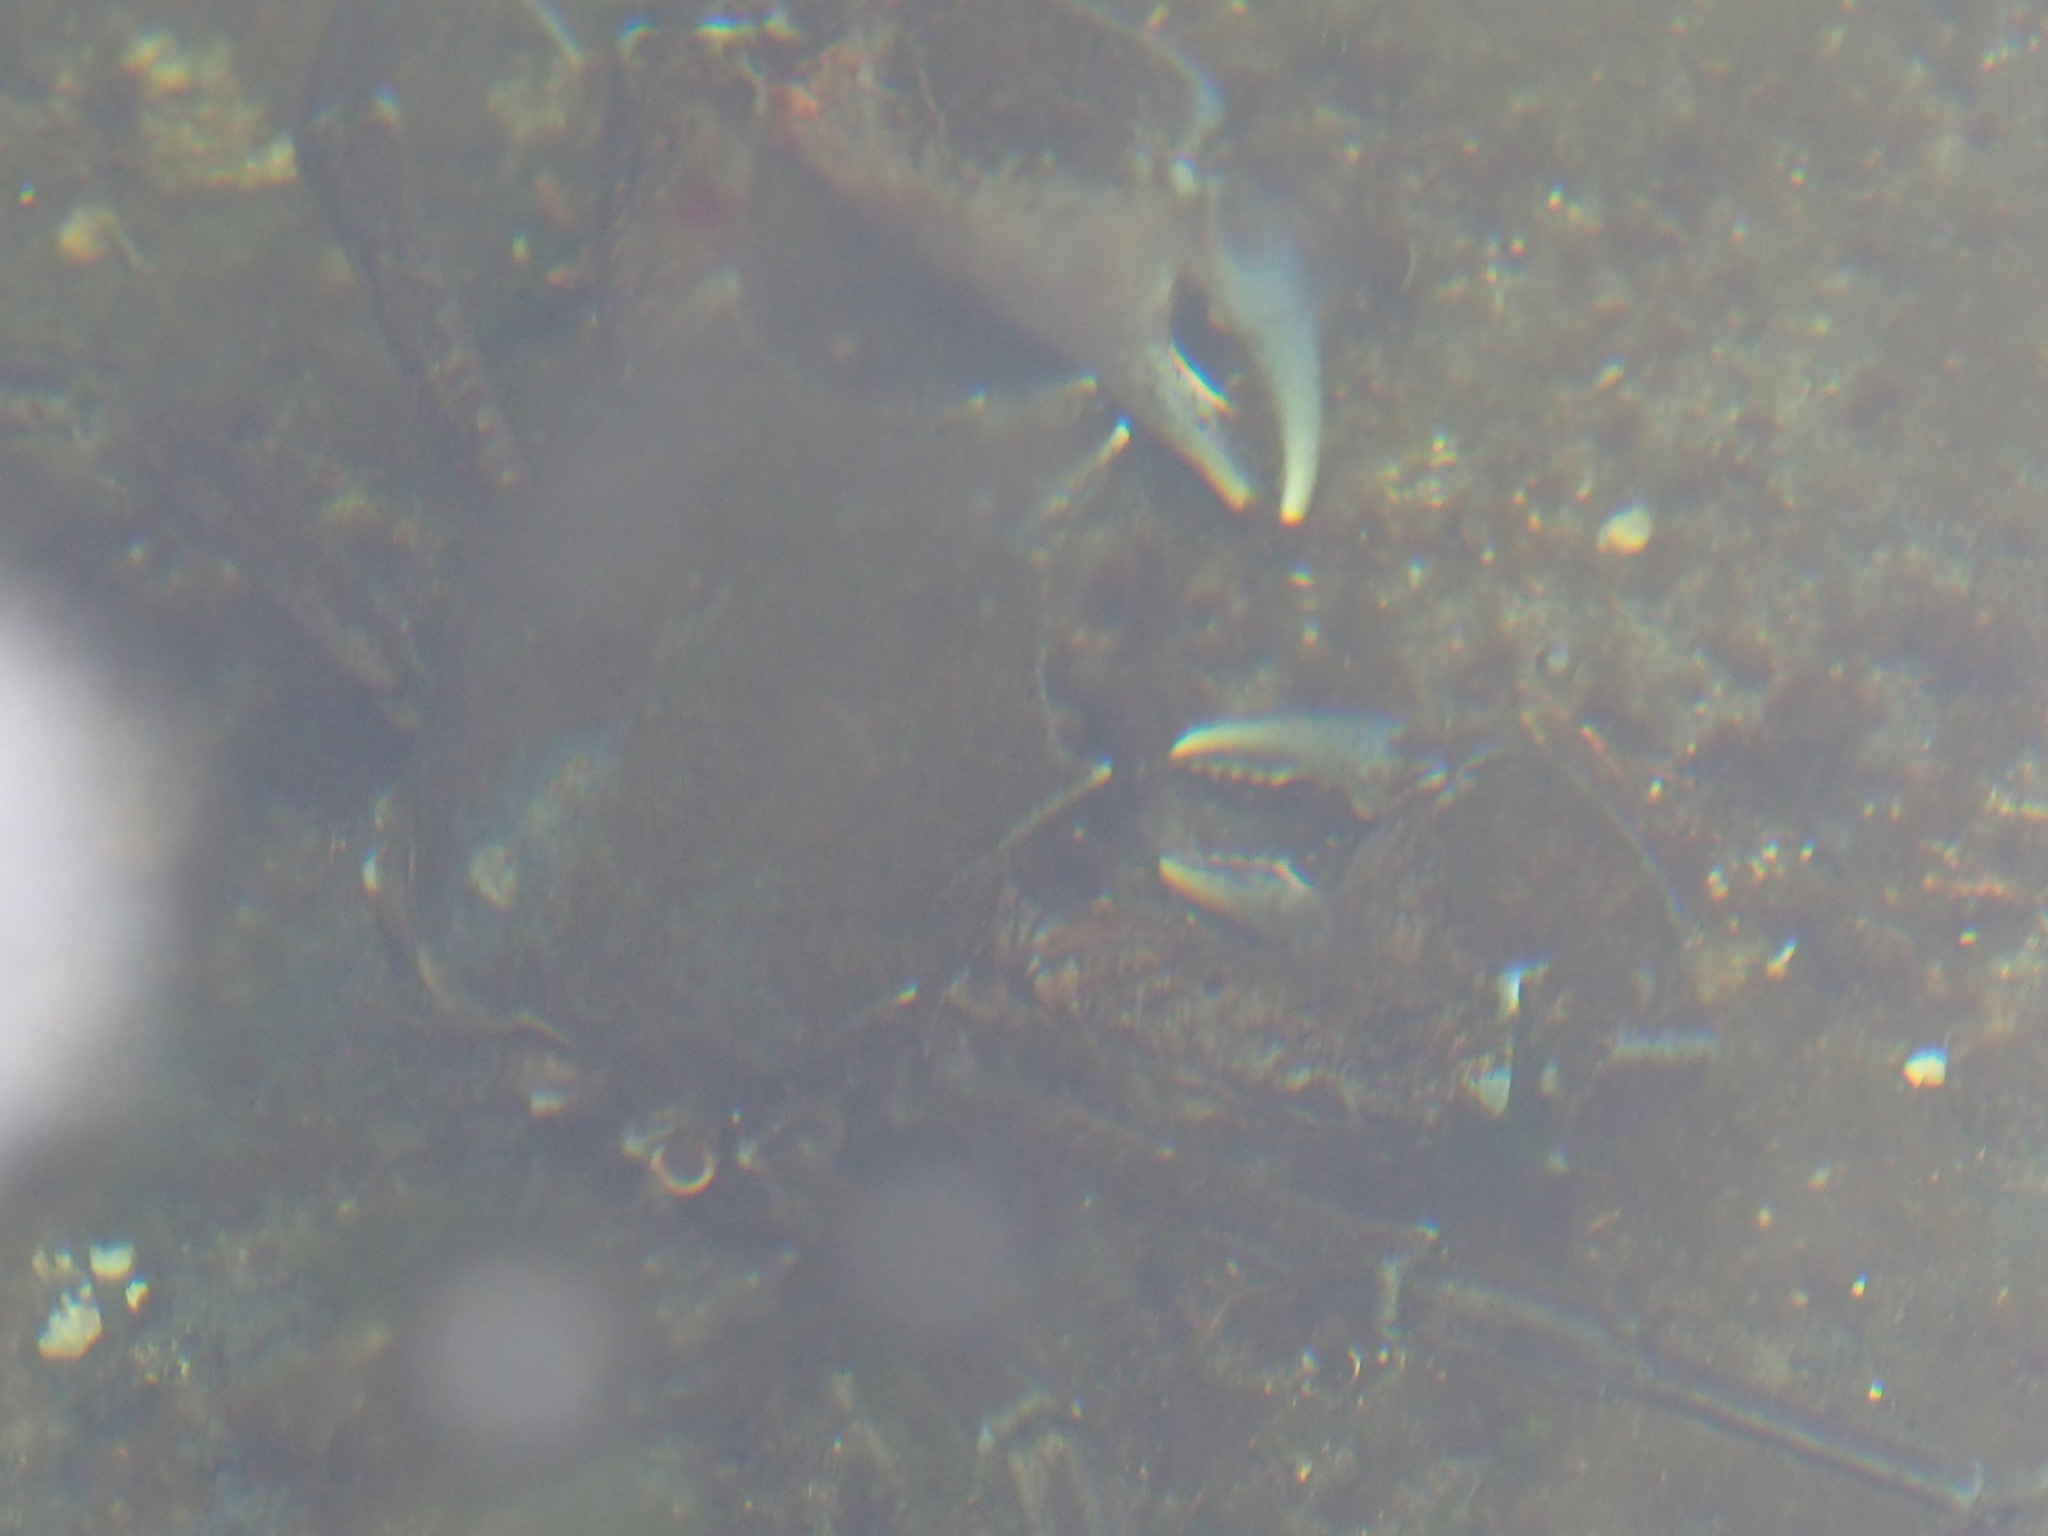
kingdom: Animalia
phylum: Arthropoda
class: Malacostraca
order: Decapoda
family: Epialtidae
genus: Pugettia
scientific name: Pugettia producta
